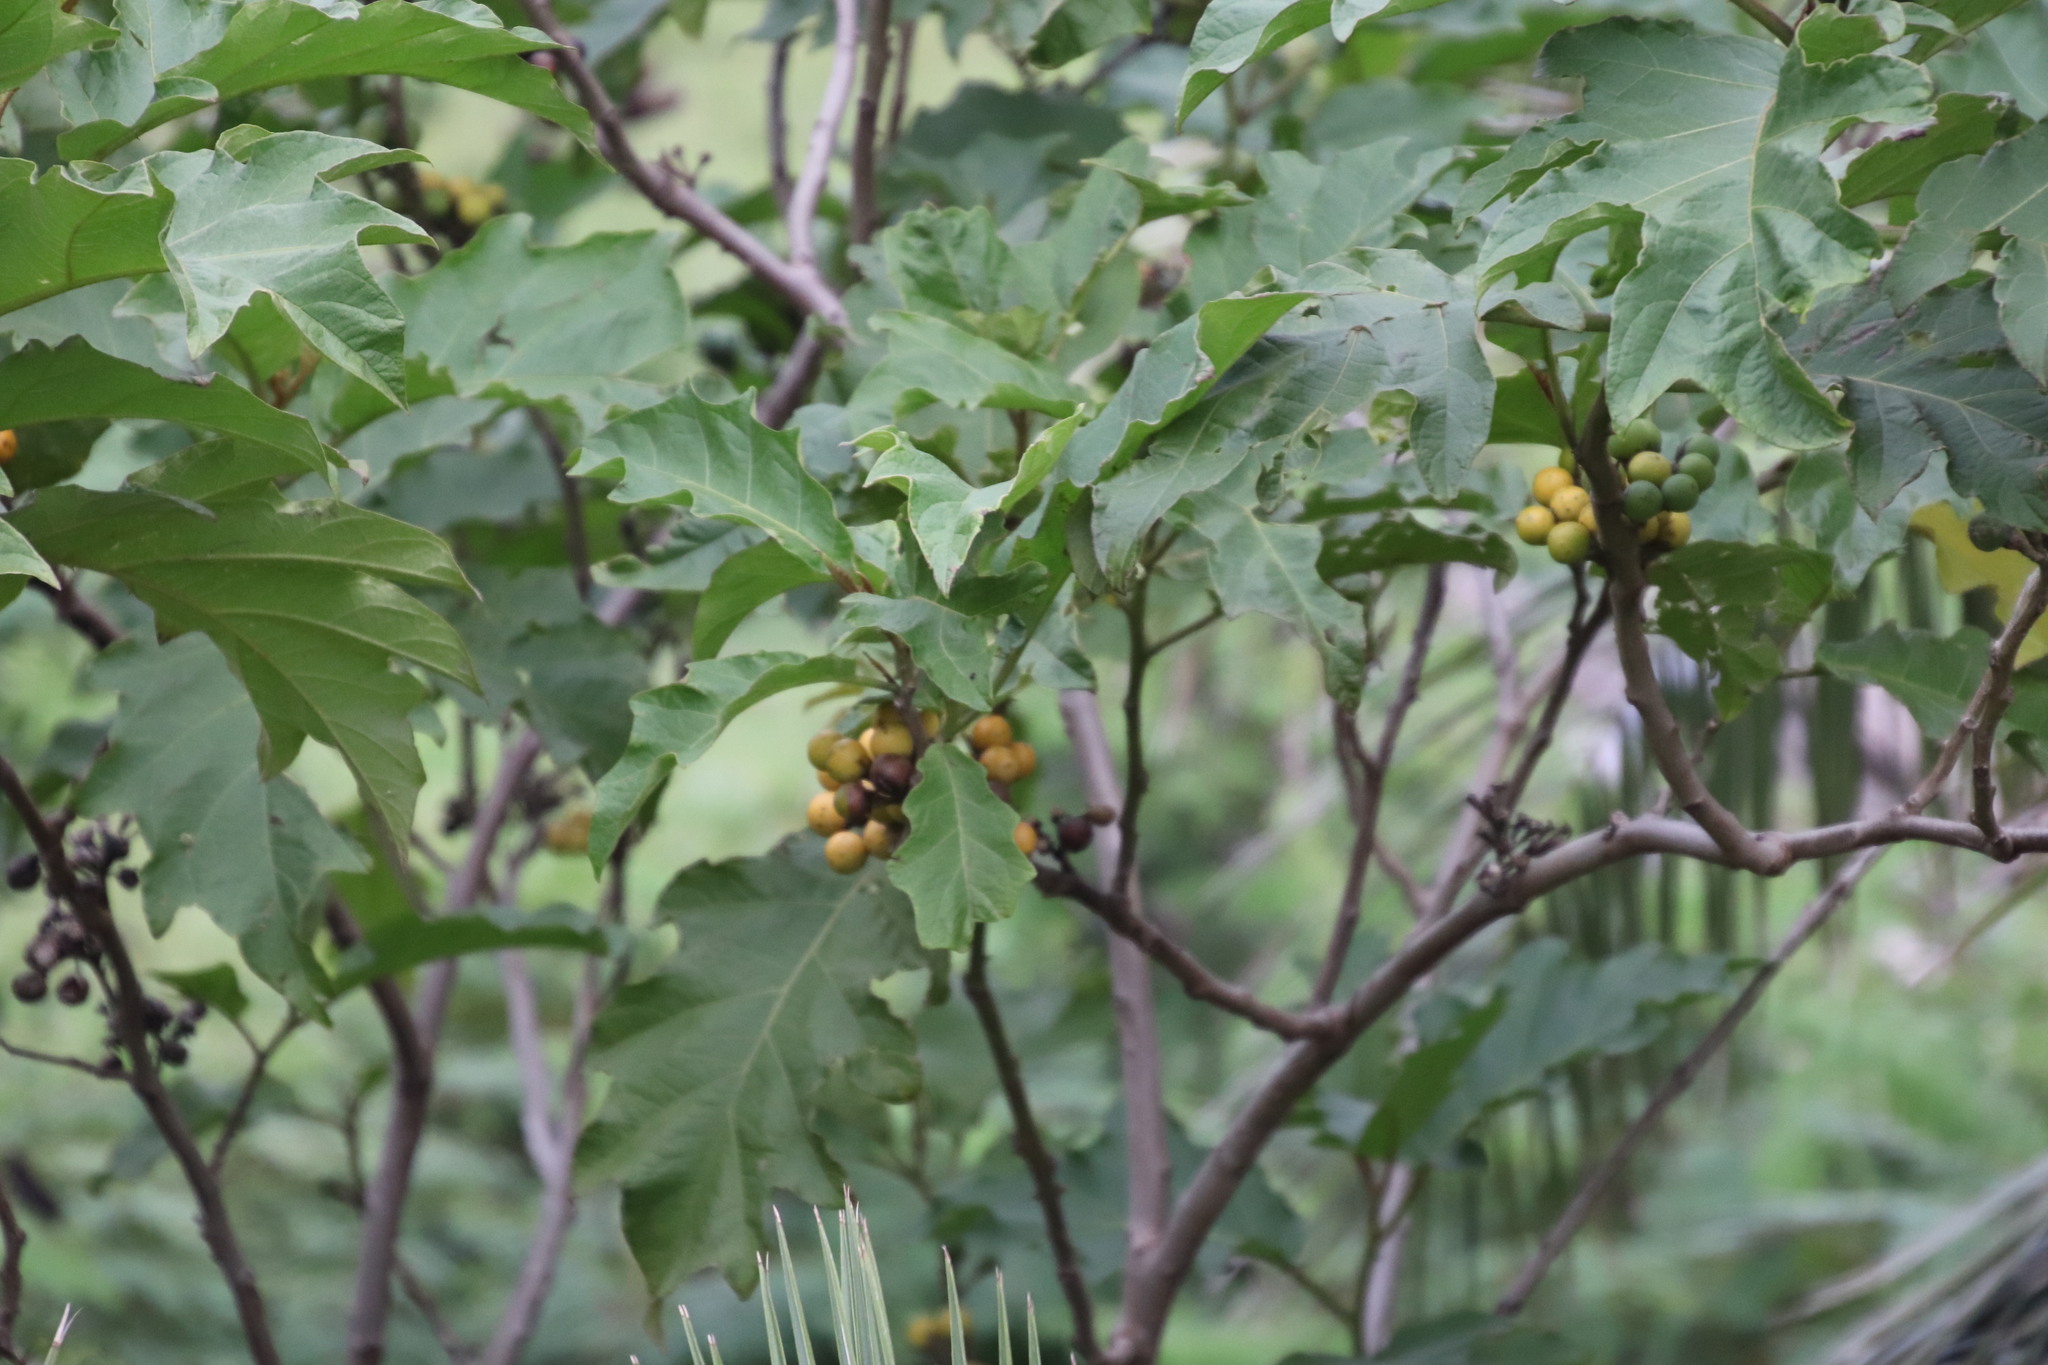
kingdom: Plantae
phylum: Tracheophyta
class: Magnoliopsida
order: Solanales
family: Solanaceae
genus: Solanum
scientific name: Solanum chrysotrichum
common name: Nightshade
